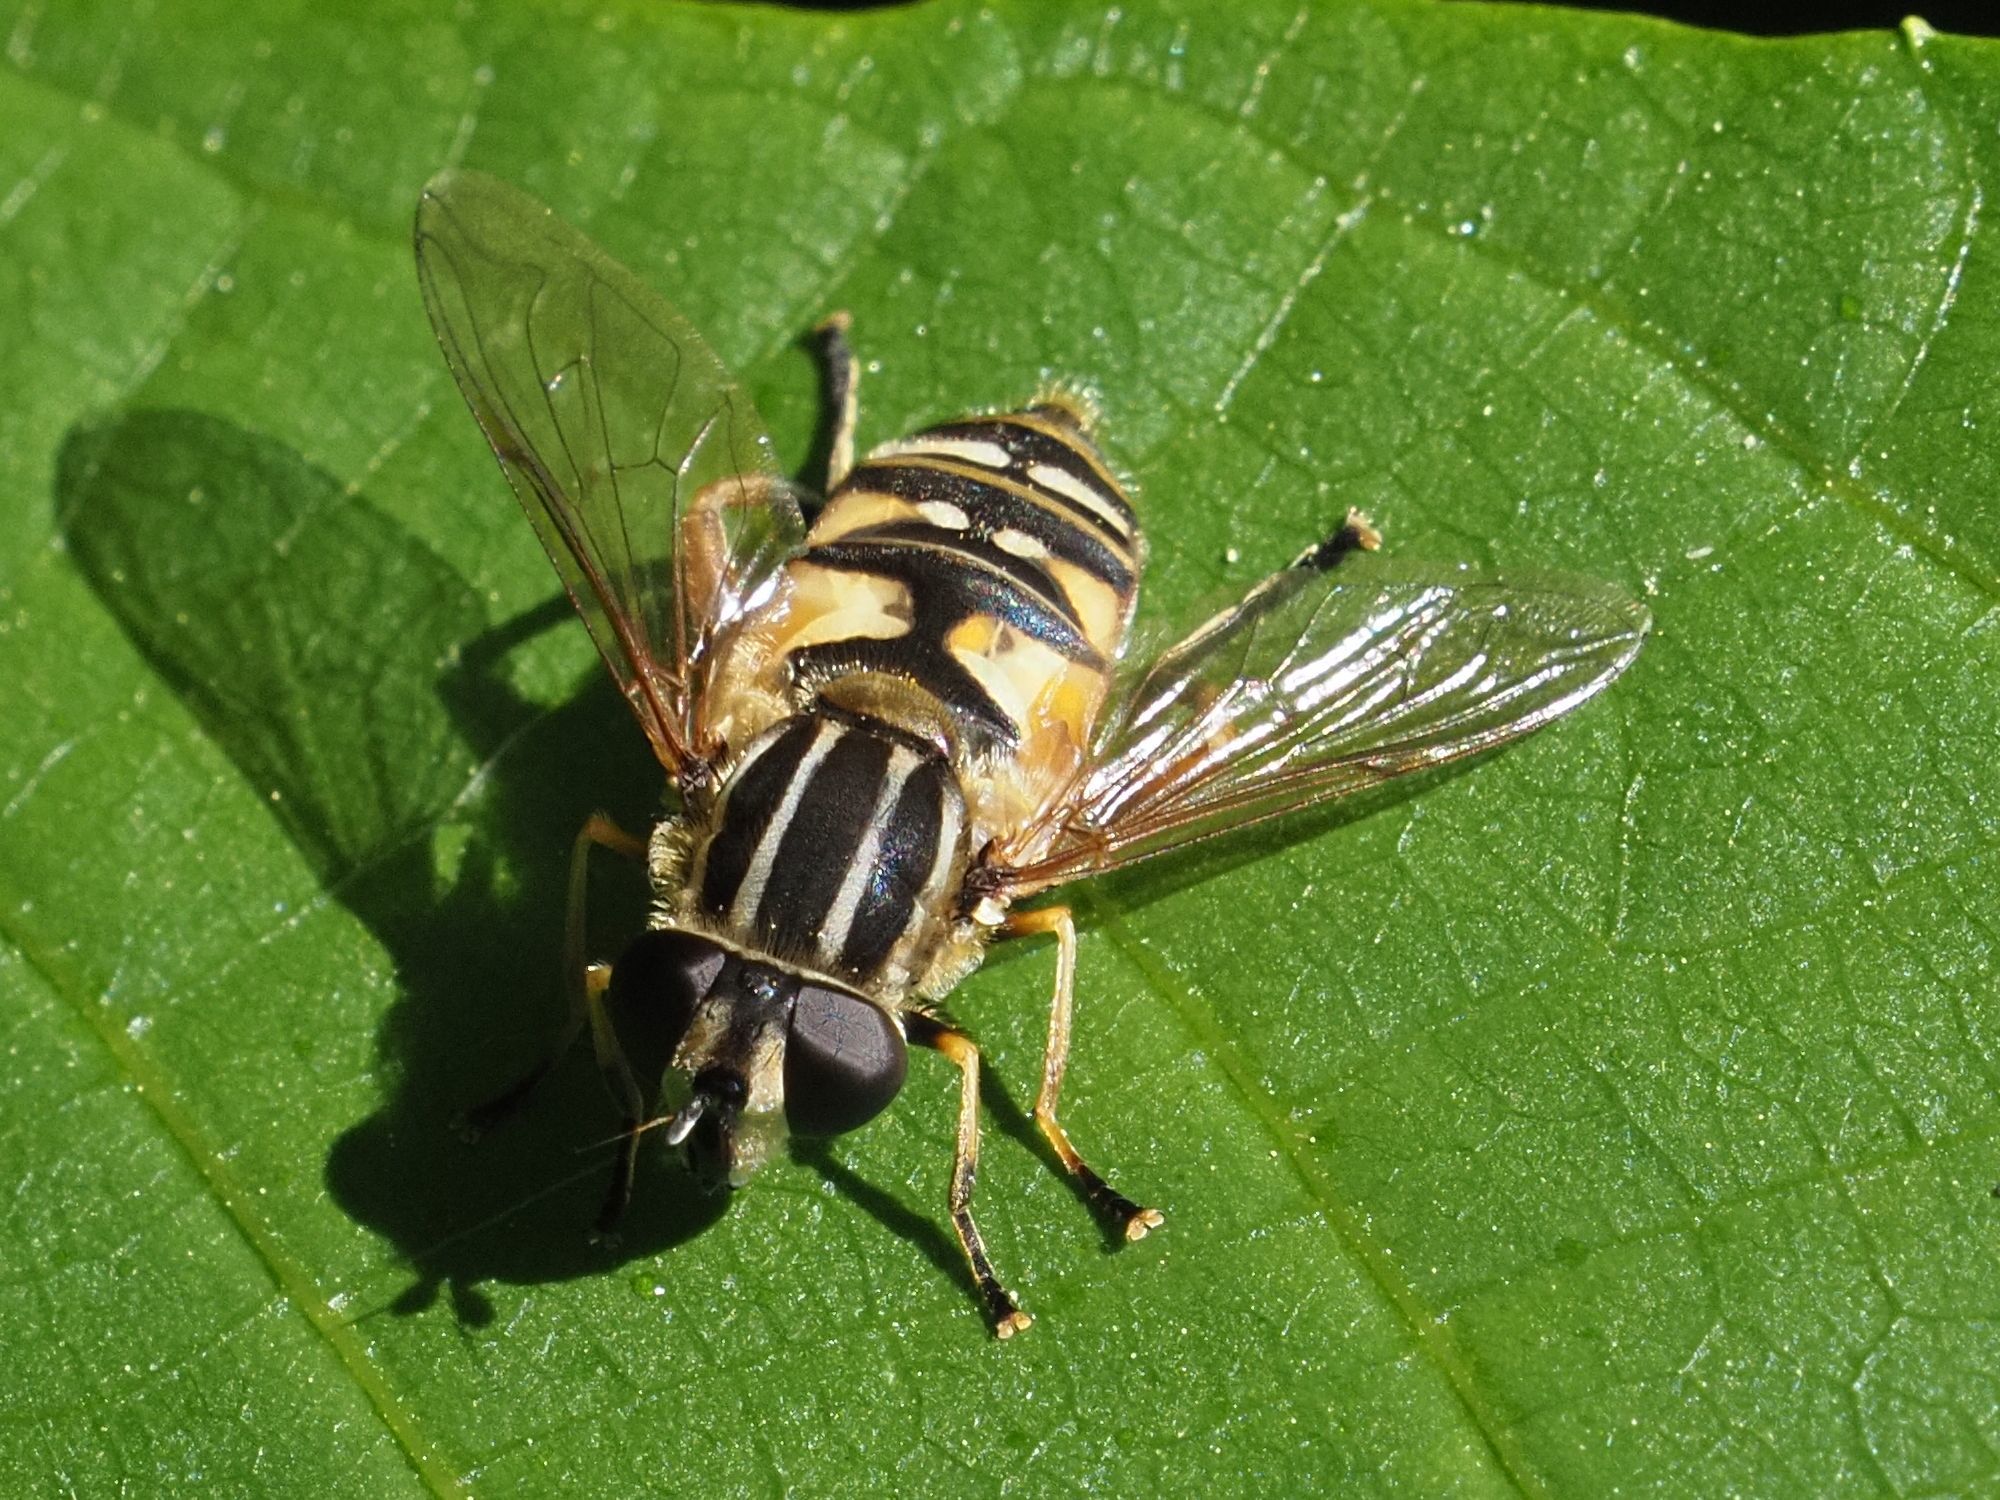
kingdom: Animalia
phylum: Arthropoda
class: Insecta
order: Diptera
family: Syrphidae
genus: Helophilus
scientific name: Helophilus pendulus
